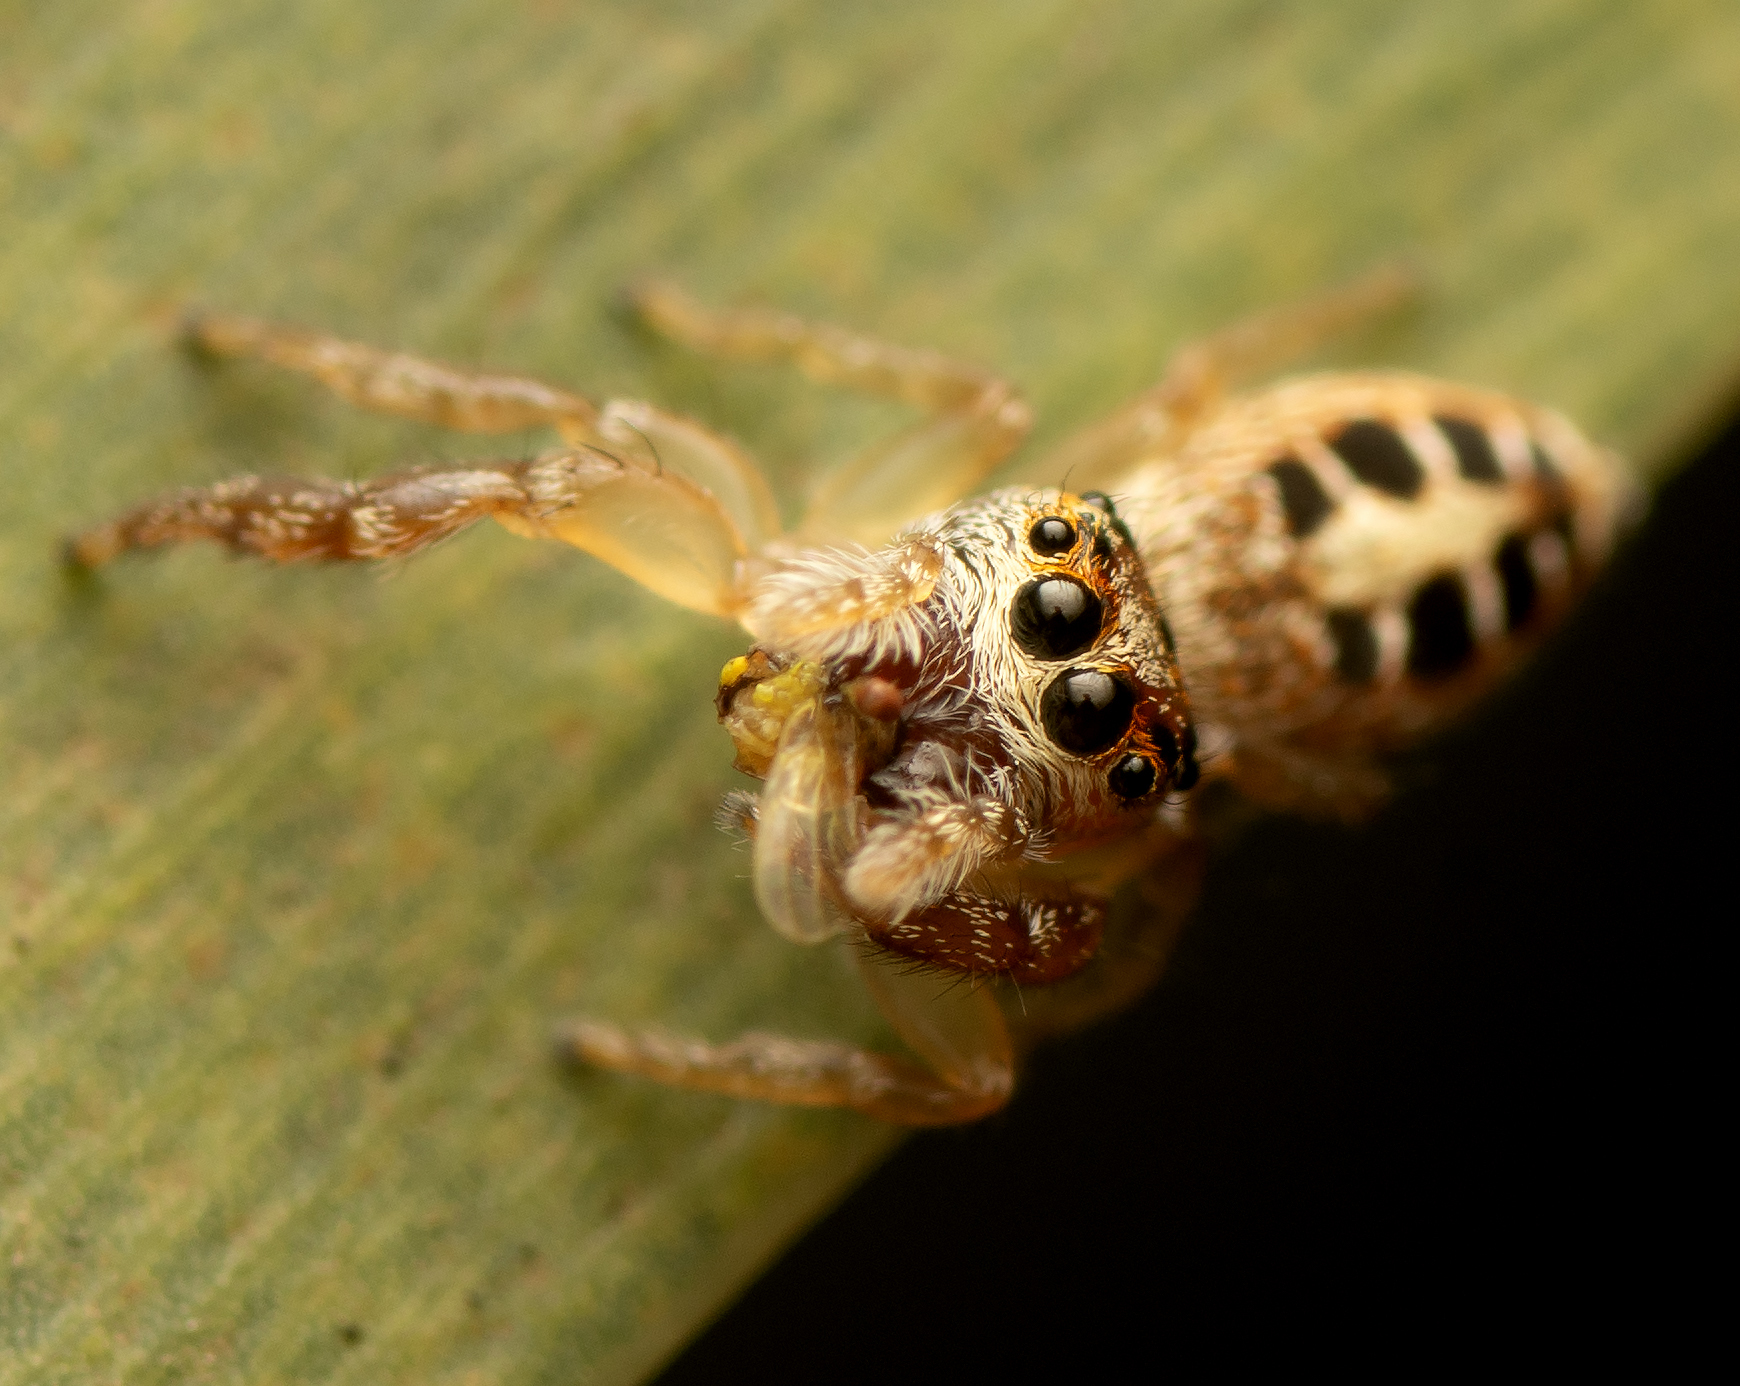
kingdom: Animalia
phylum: Arthropoda
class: Arachnida
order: Araneae
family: Salticidae
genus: Opisthoncus
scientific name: Opisthoncus sexmaculatus
